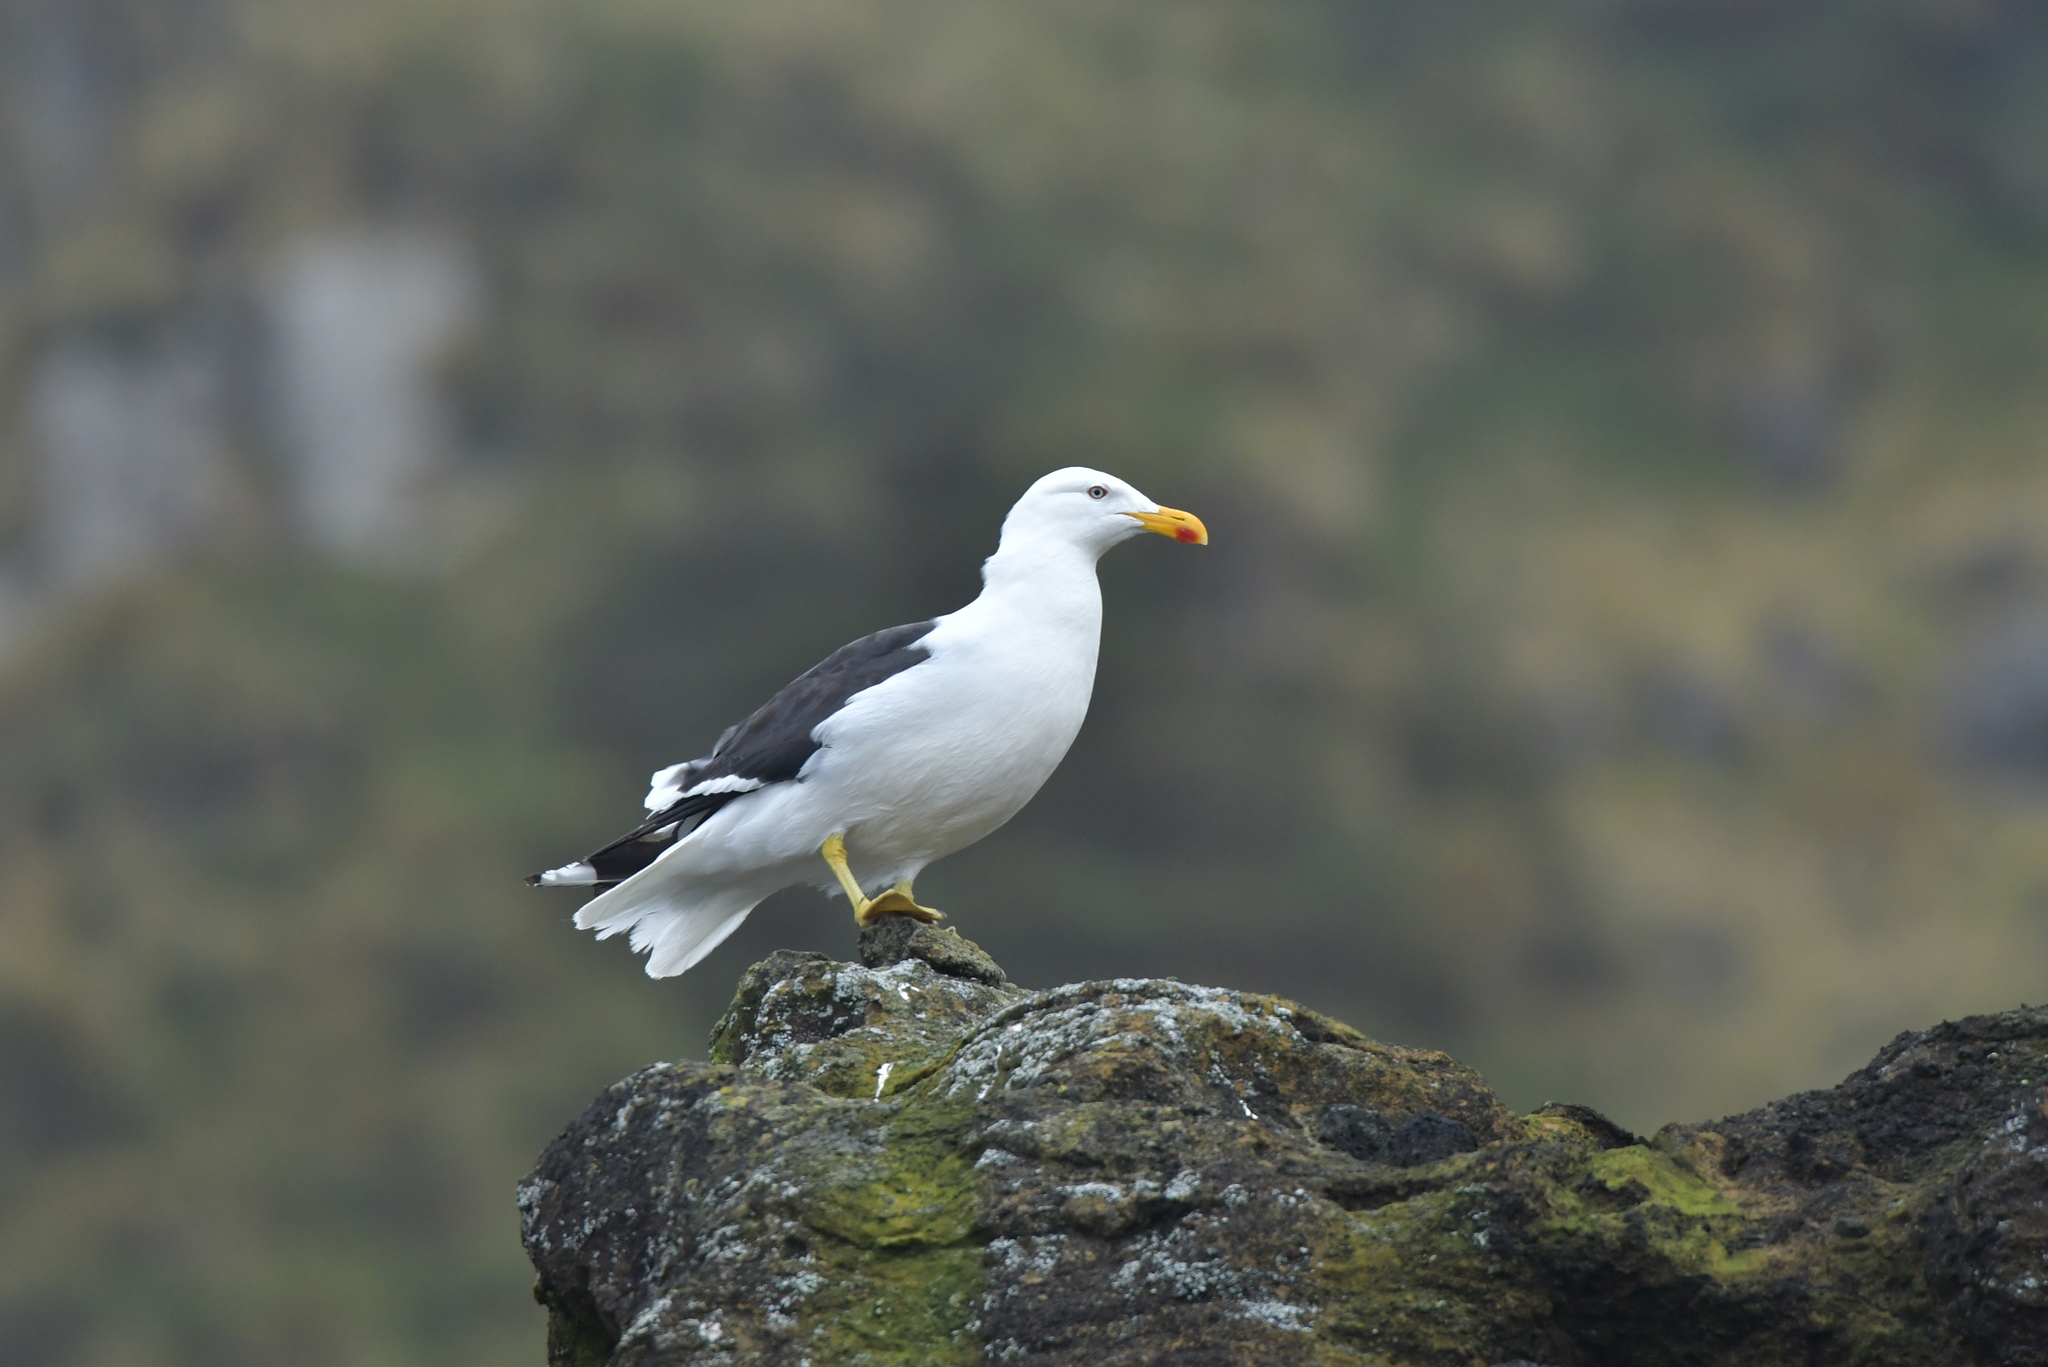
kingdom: Animalia
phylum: Chordata
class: Aves
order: Charadriiformes
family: Laridae
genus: Larus
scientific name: Larus dominicanus
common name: Kelp gull
